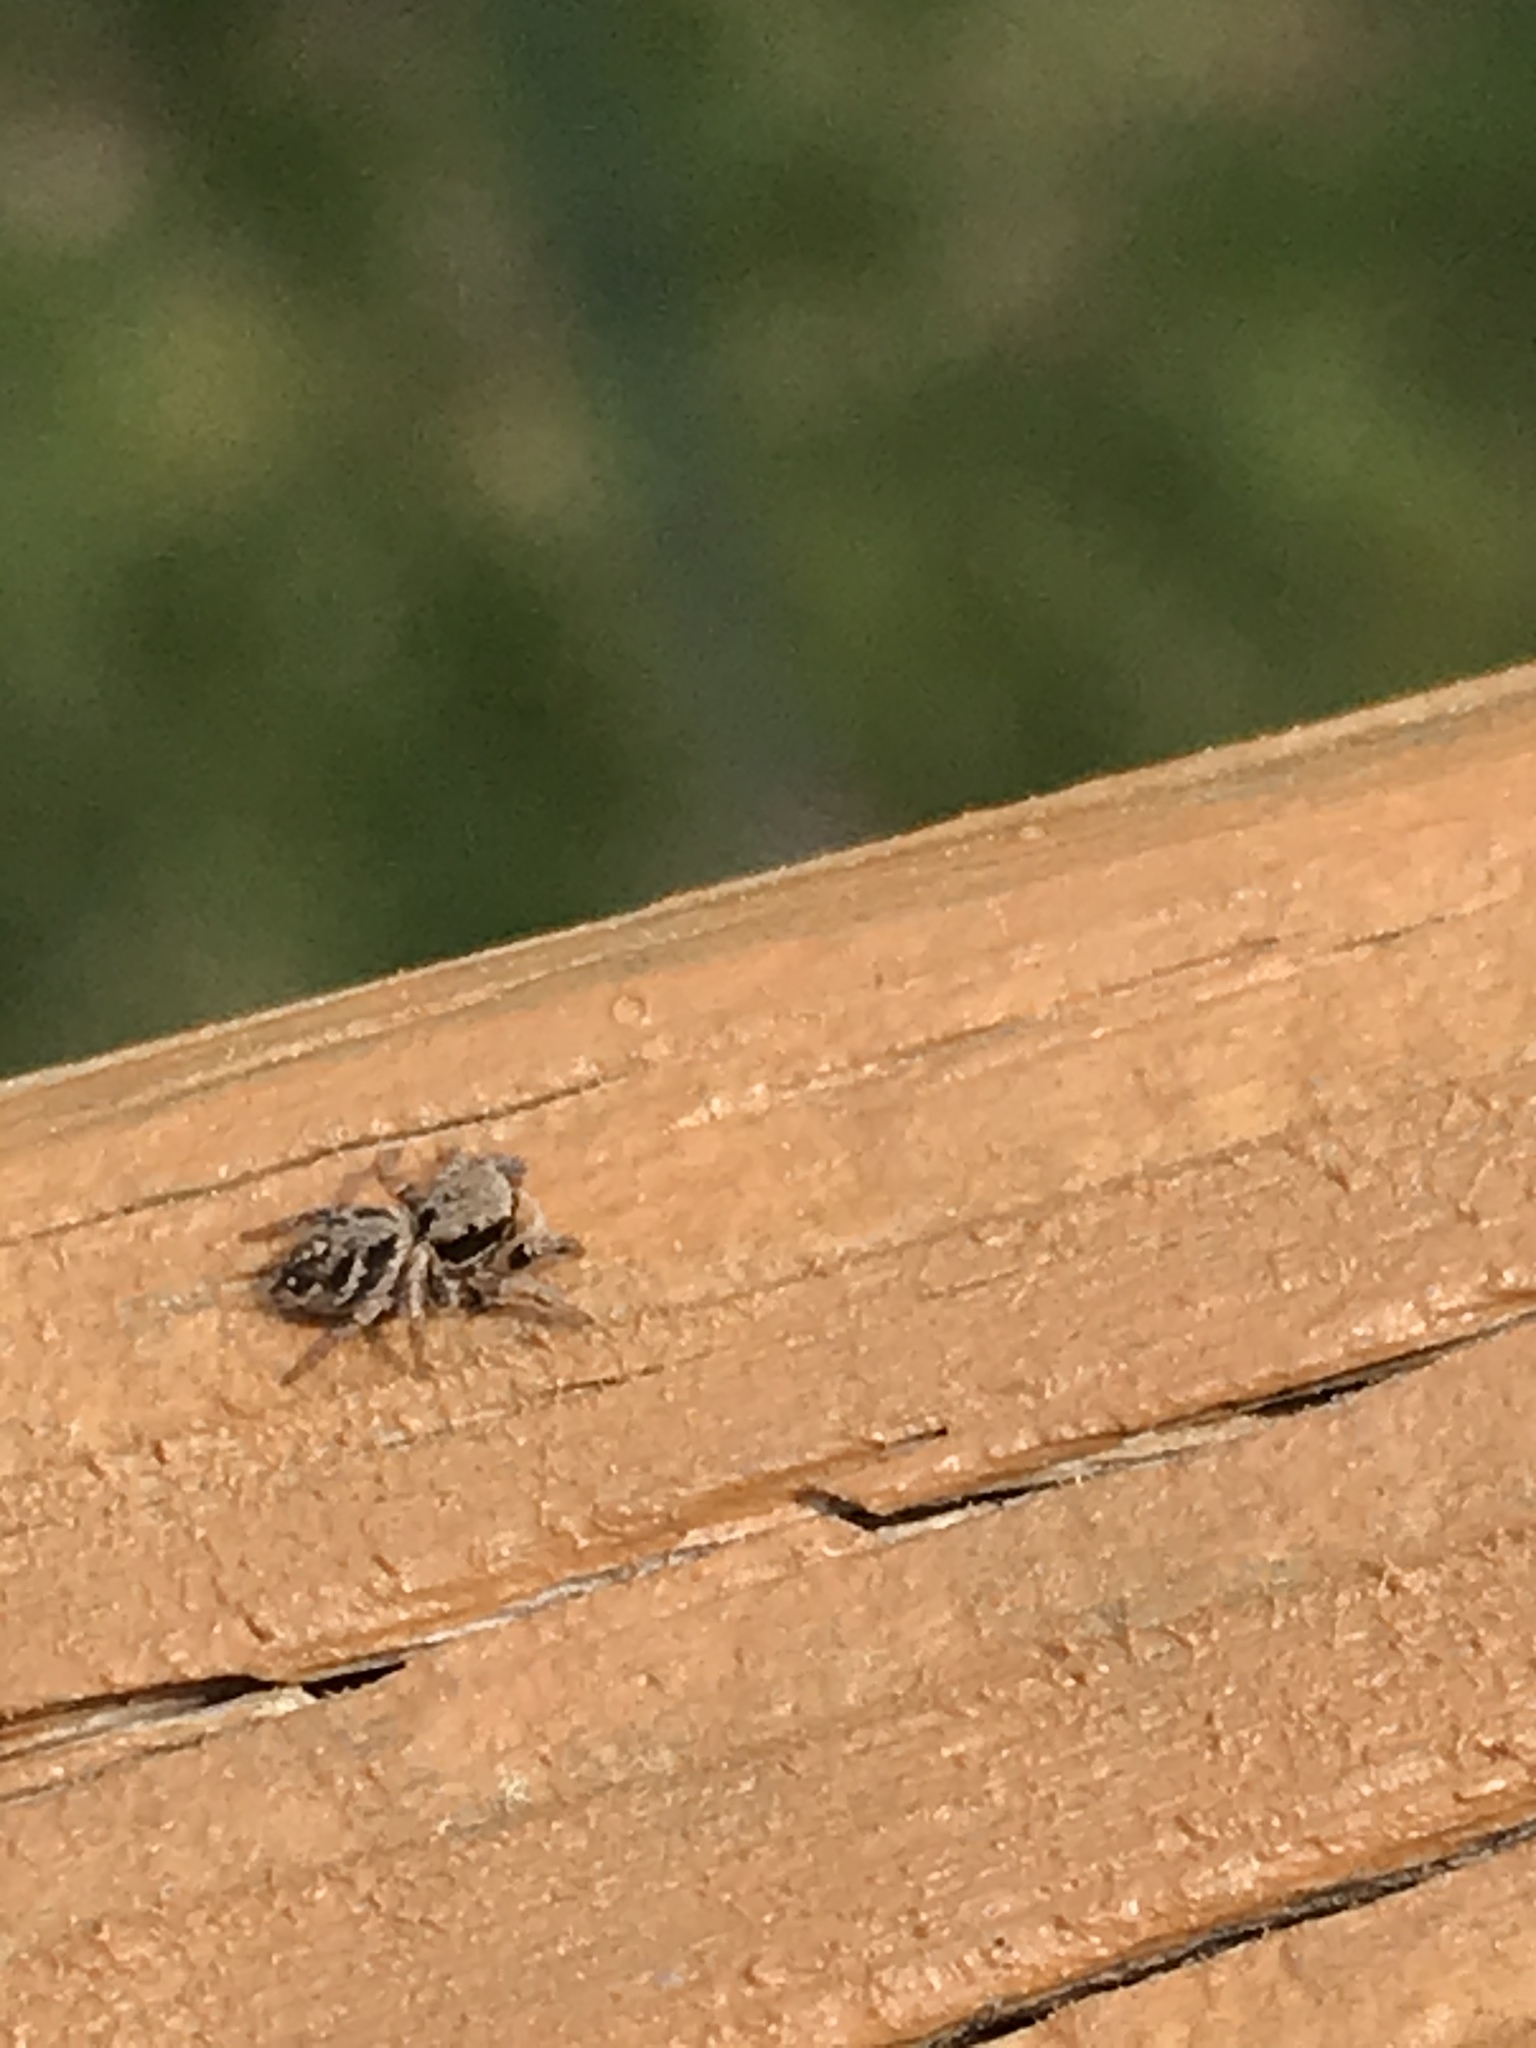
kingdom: Animalia
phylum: Arthropoda
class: Arachnida
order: Araneae
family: Salticidae
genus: Habronattus
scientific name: Habronattus coecatus
